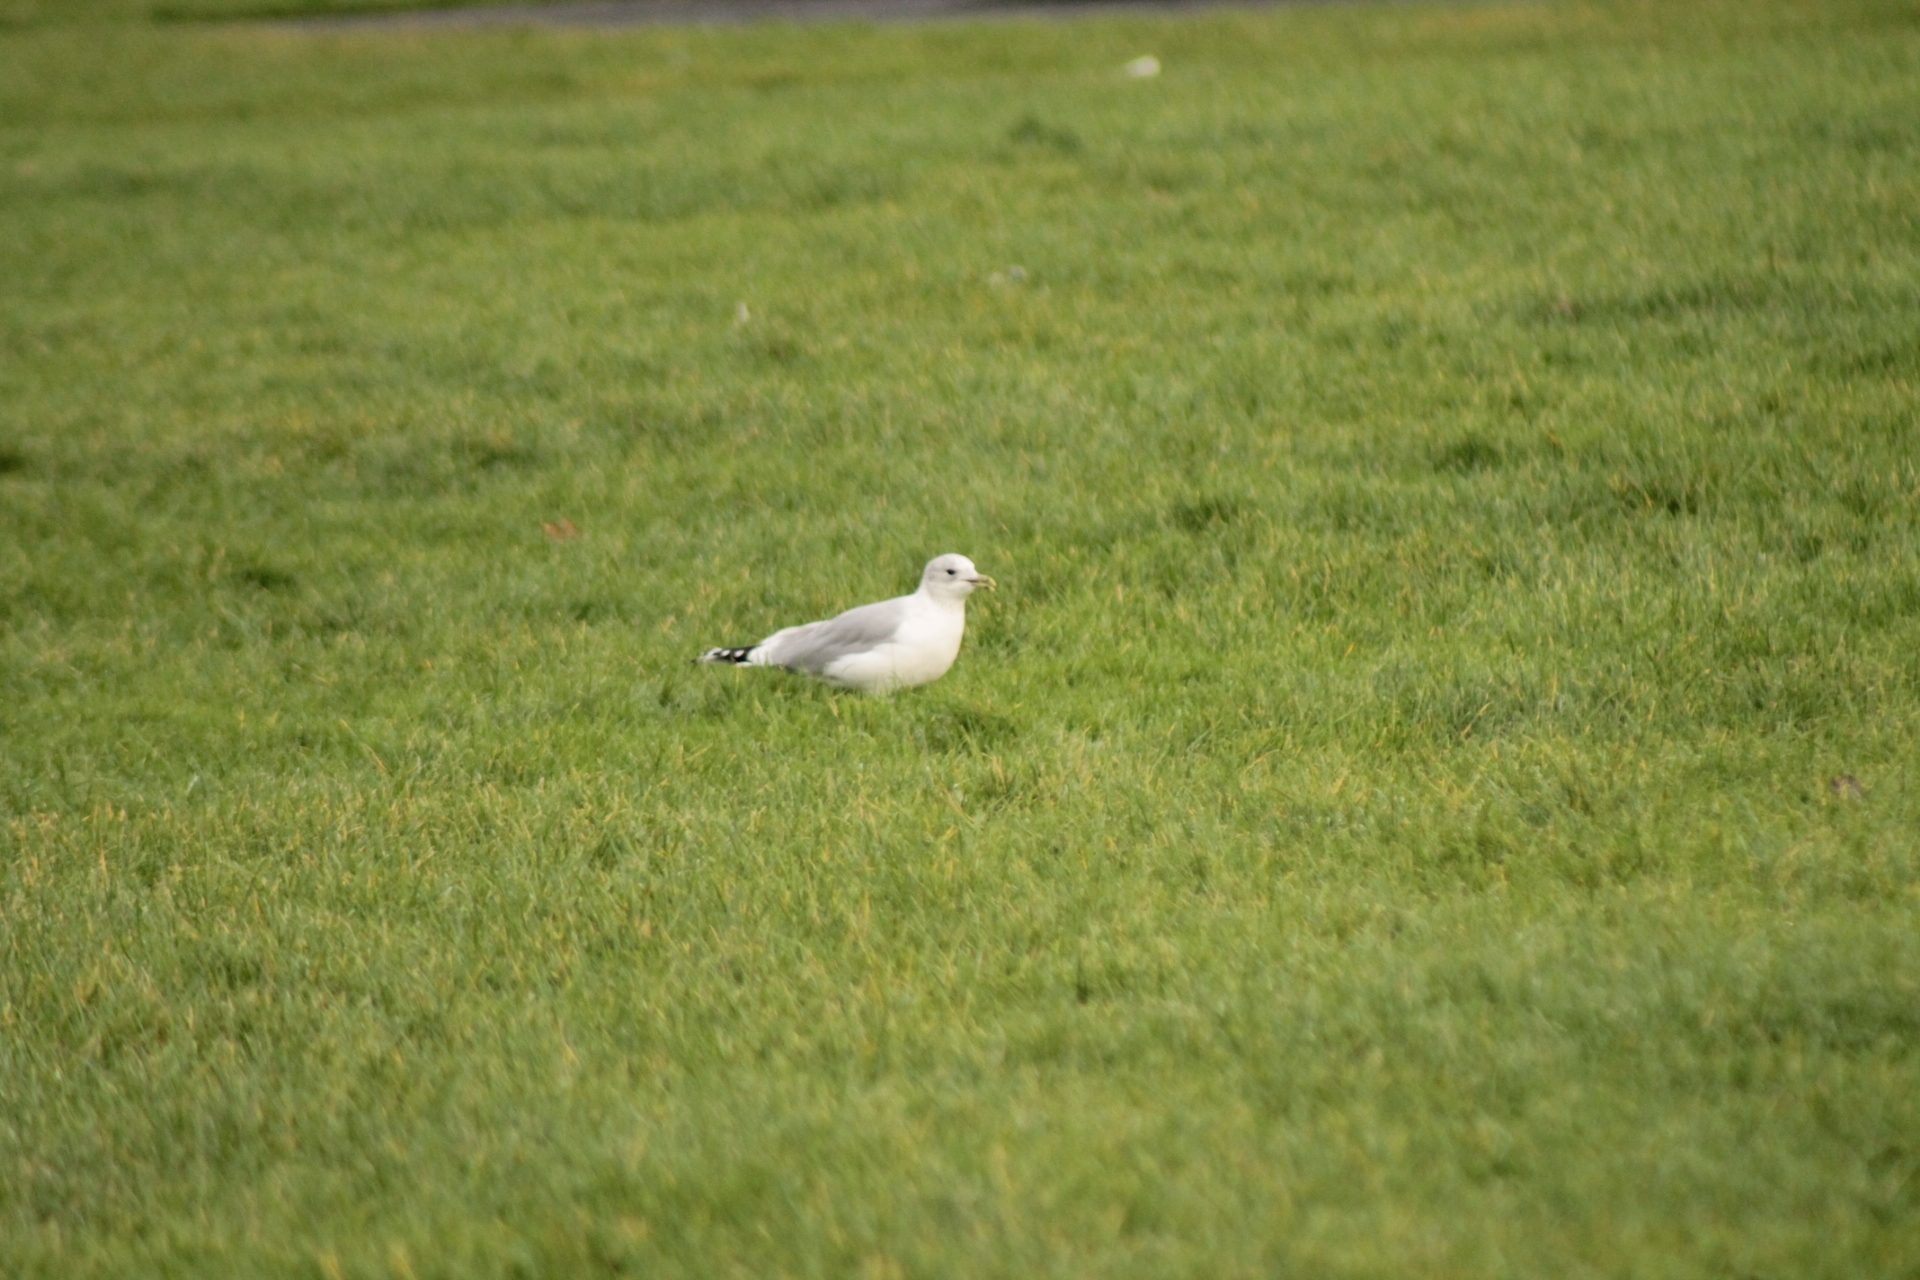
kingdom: Animalia
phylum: Chordata
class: Aves
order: Charadriiformes
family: Laridae
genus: Larus
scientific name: Larus canus
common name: Mew gull
